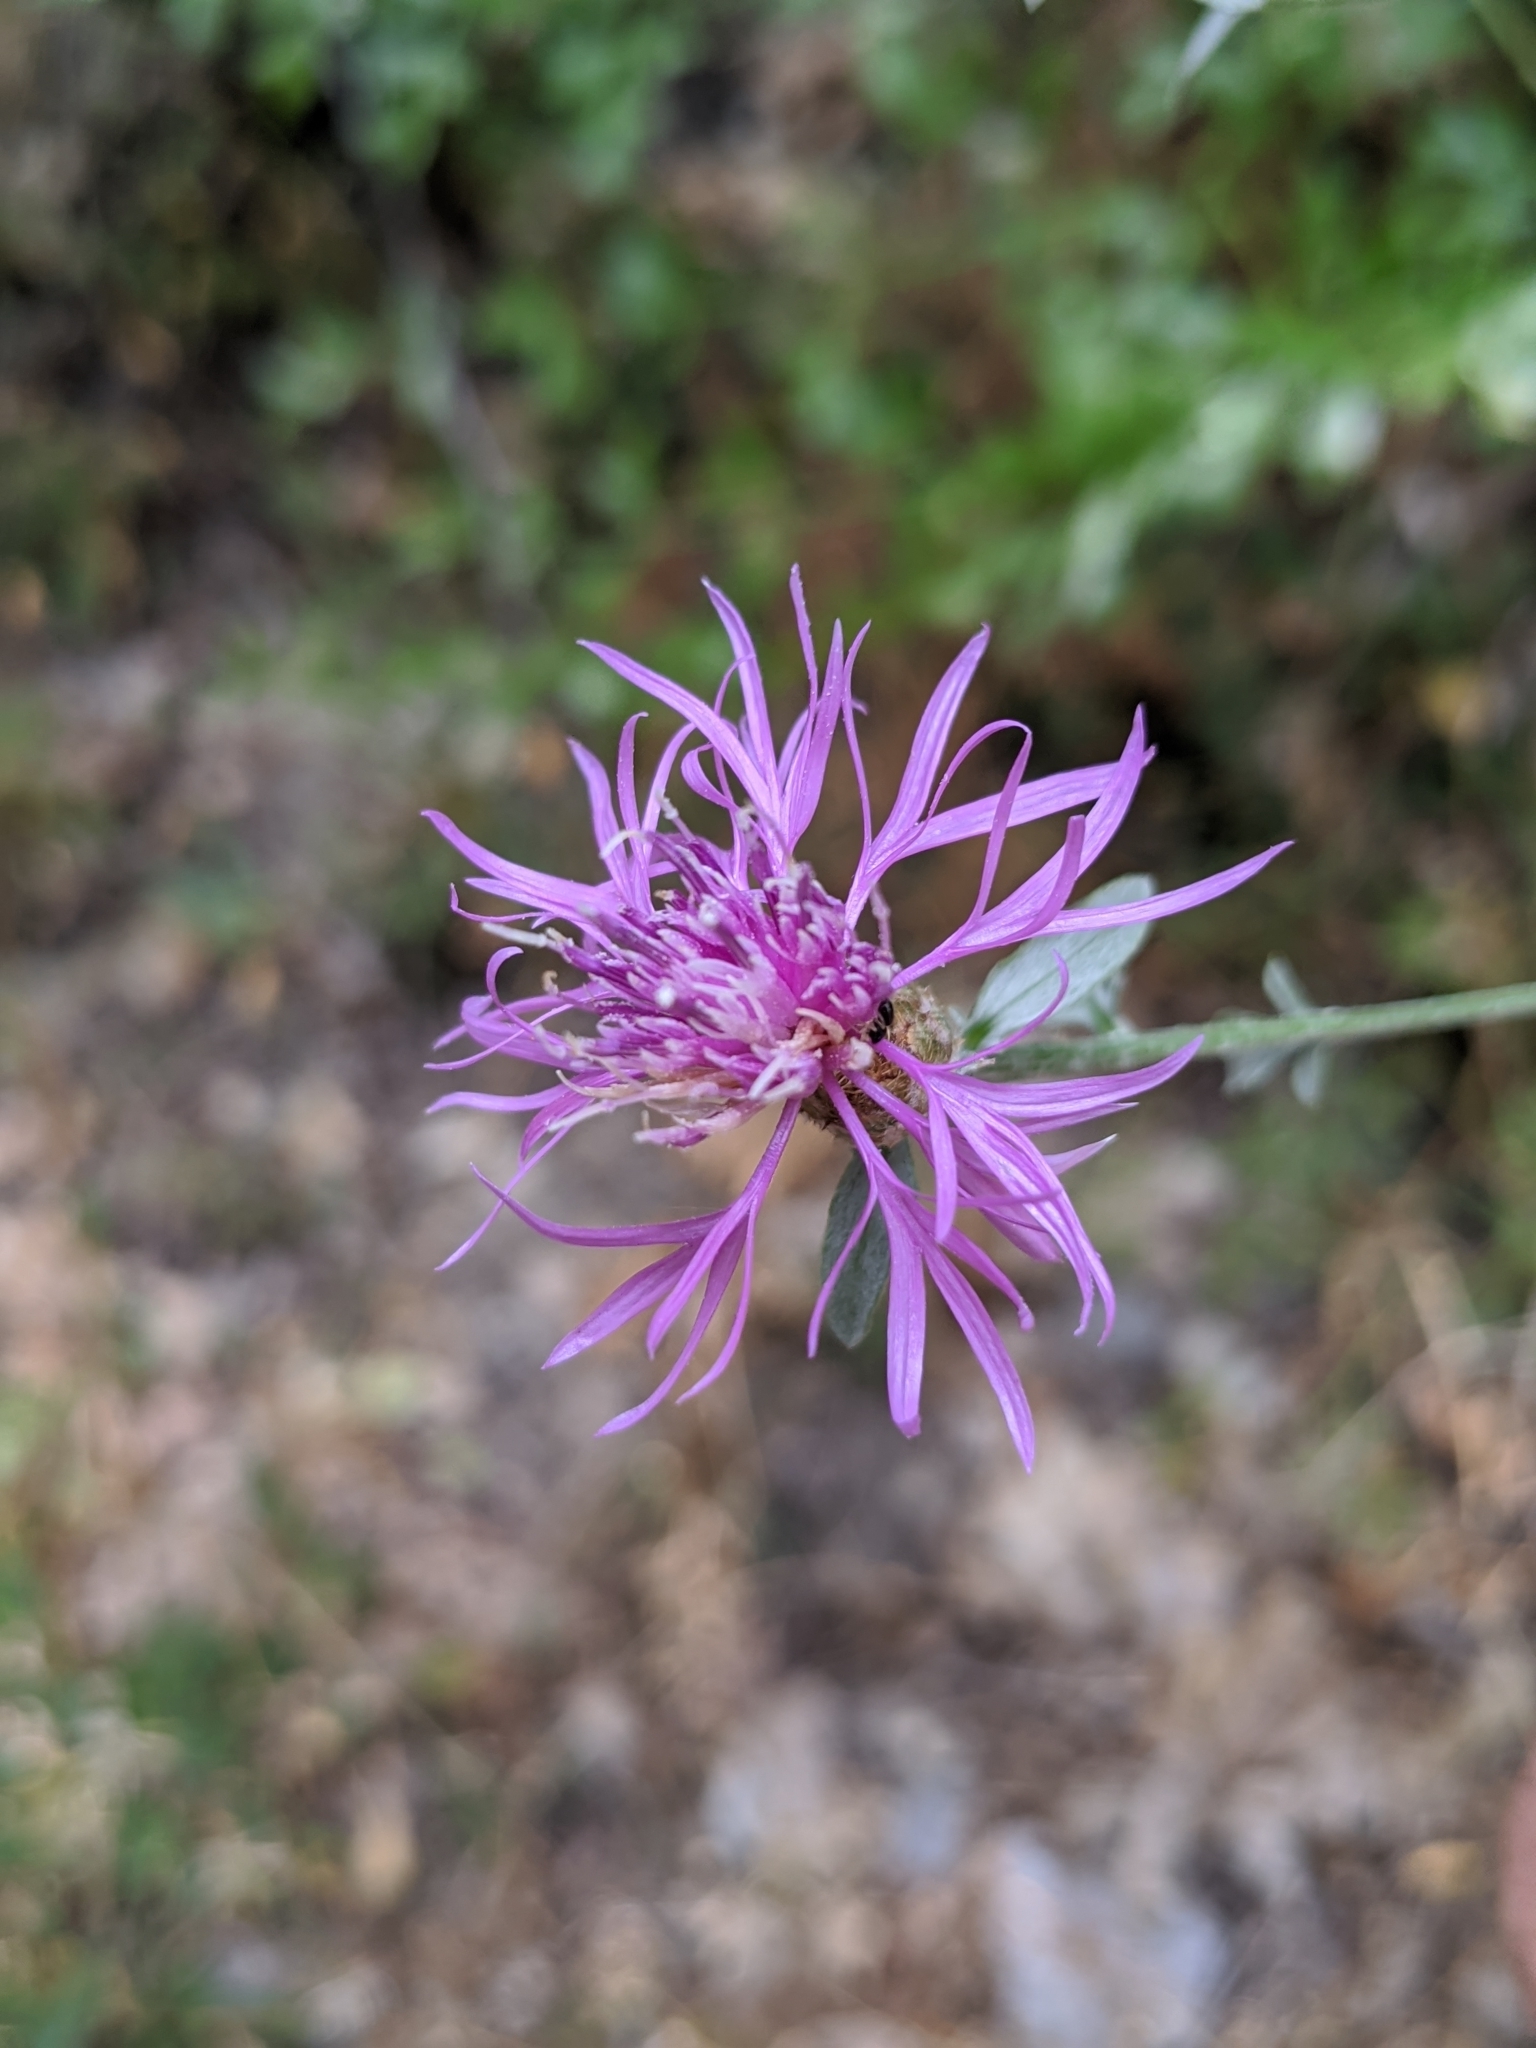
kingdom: Plantae
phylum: Tracheophyta
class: Magnoliopsida
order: Asterales
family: Asteraceae
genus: Centaurea
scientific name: Centaurea paniculata
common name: Jersey knapweed
